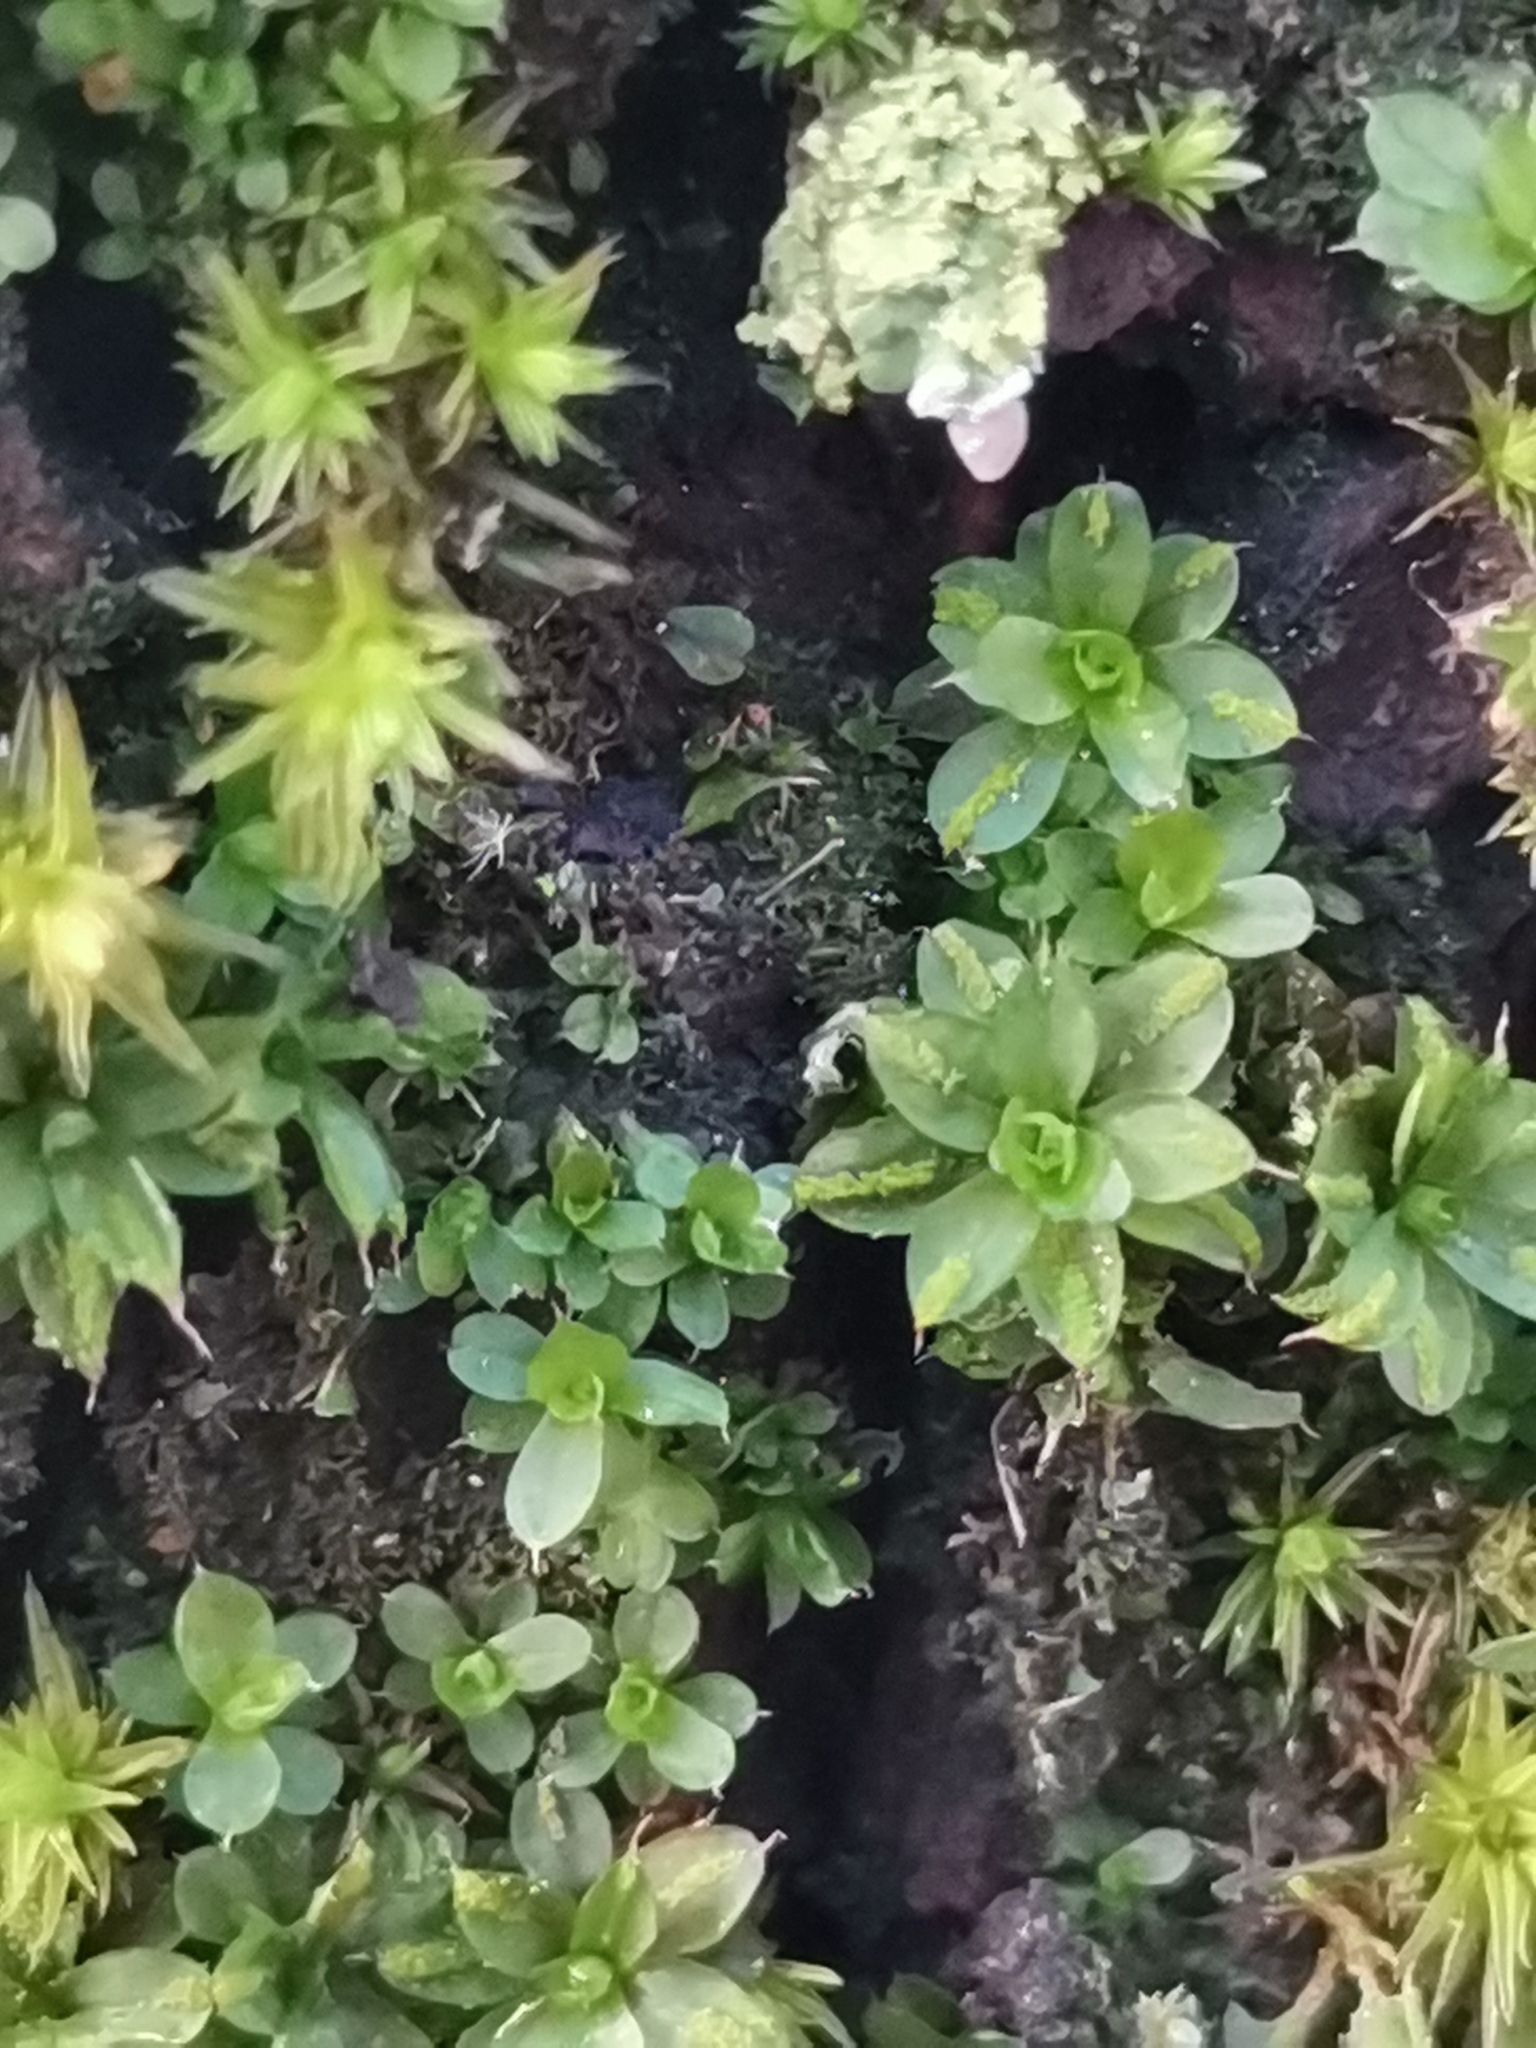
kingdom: Plantae
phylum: Bryophyta
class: Bryopsida
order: Pottiales
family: Pottiaceae
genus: Syntrichia
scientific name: Syntrichia papillosa
